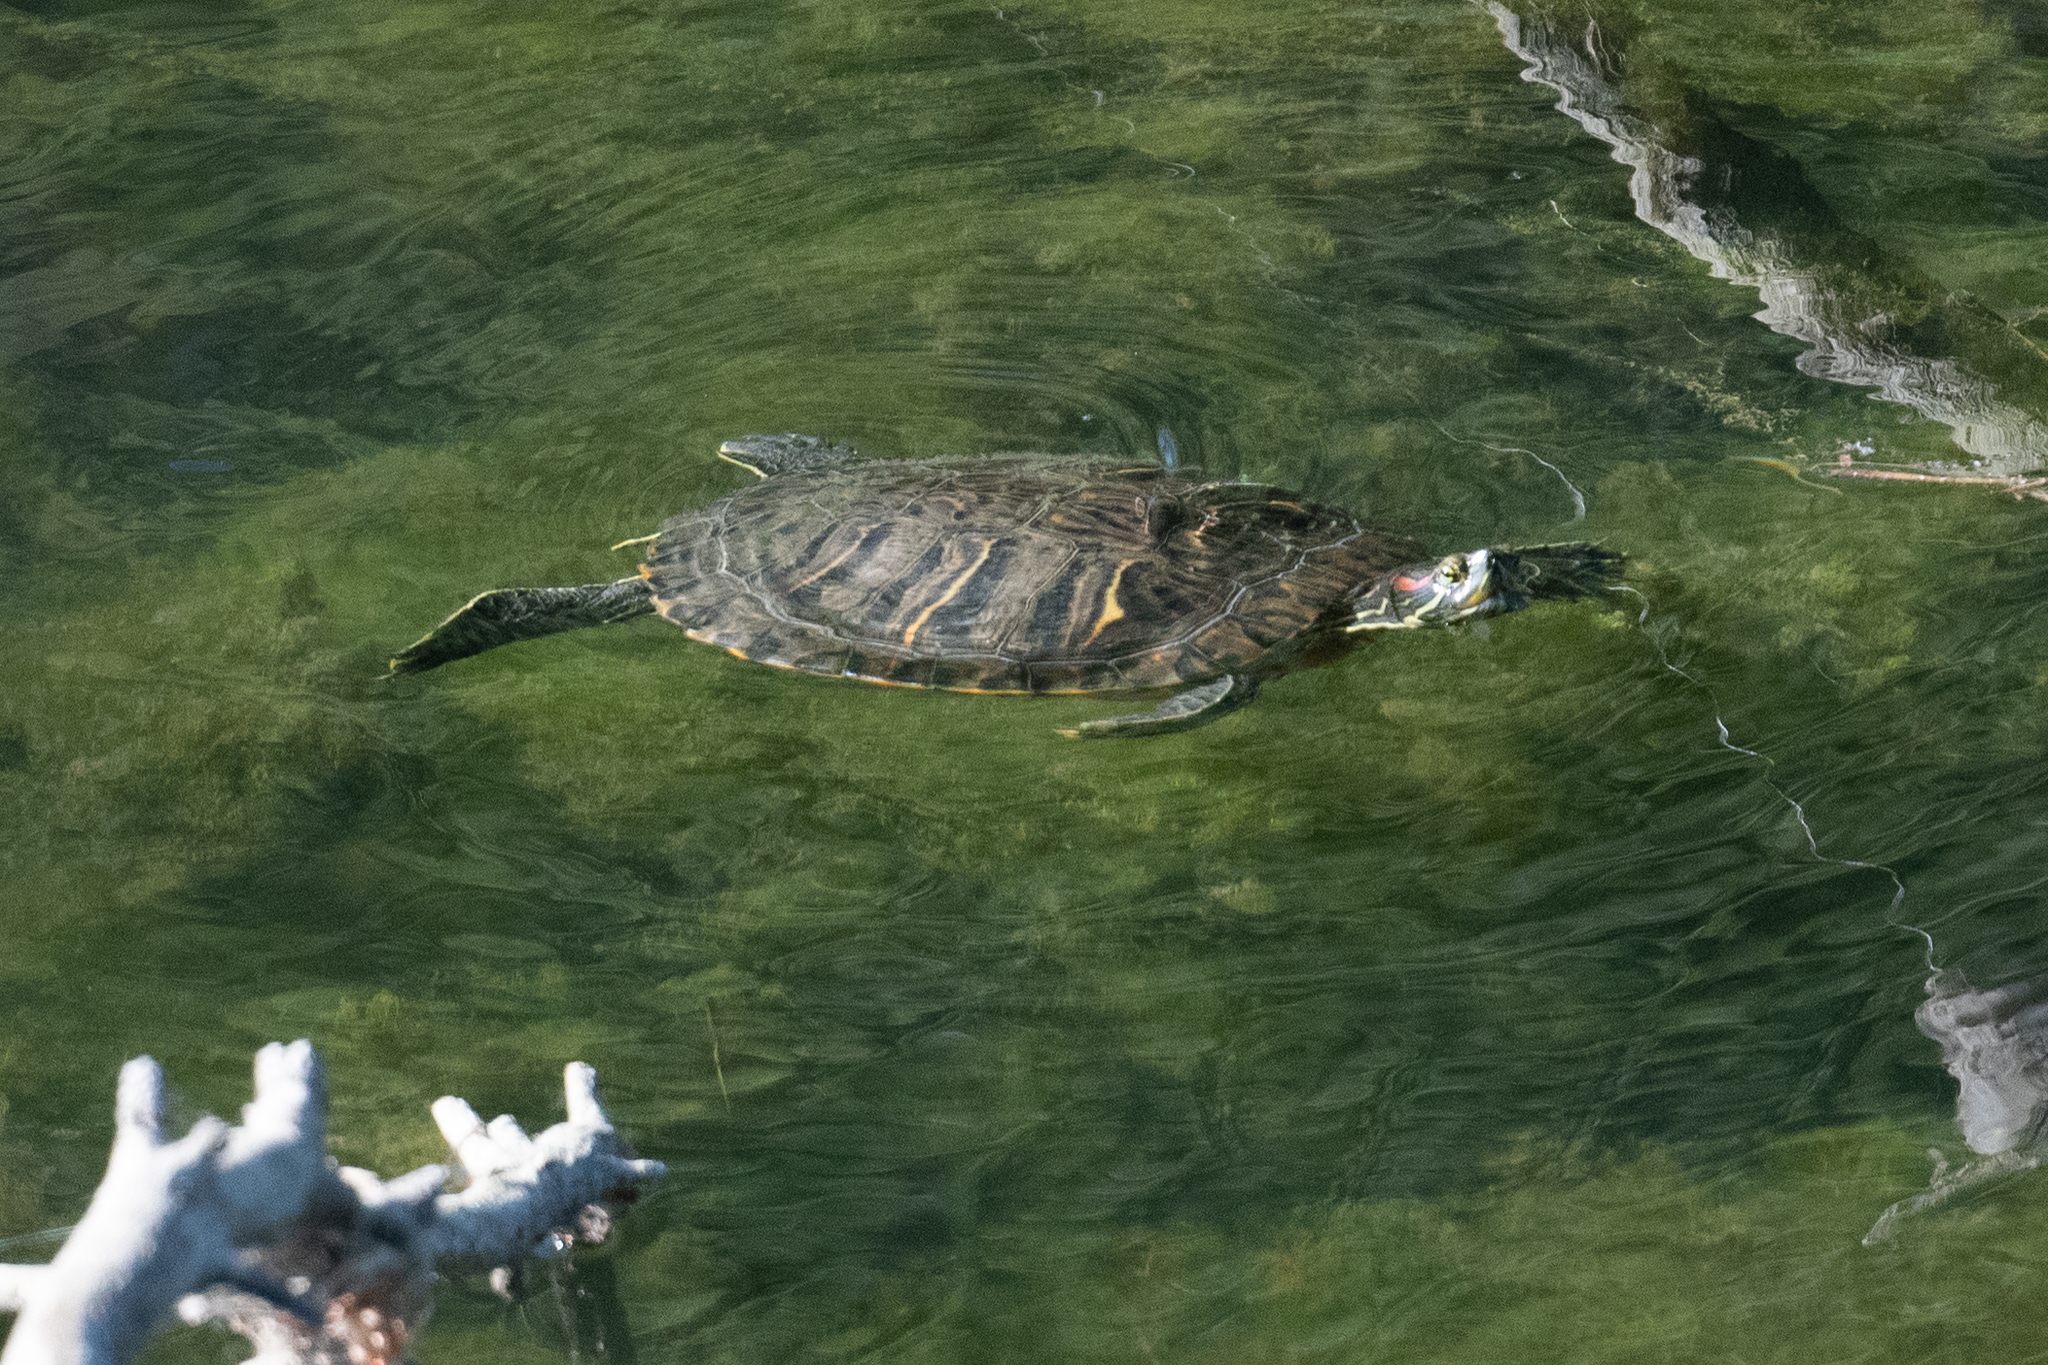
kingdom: Animalia
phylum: Chordata
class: Testudines
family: Emydidae
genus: Trachemys
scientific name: Trachemys scripta
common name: Slider
